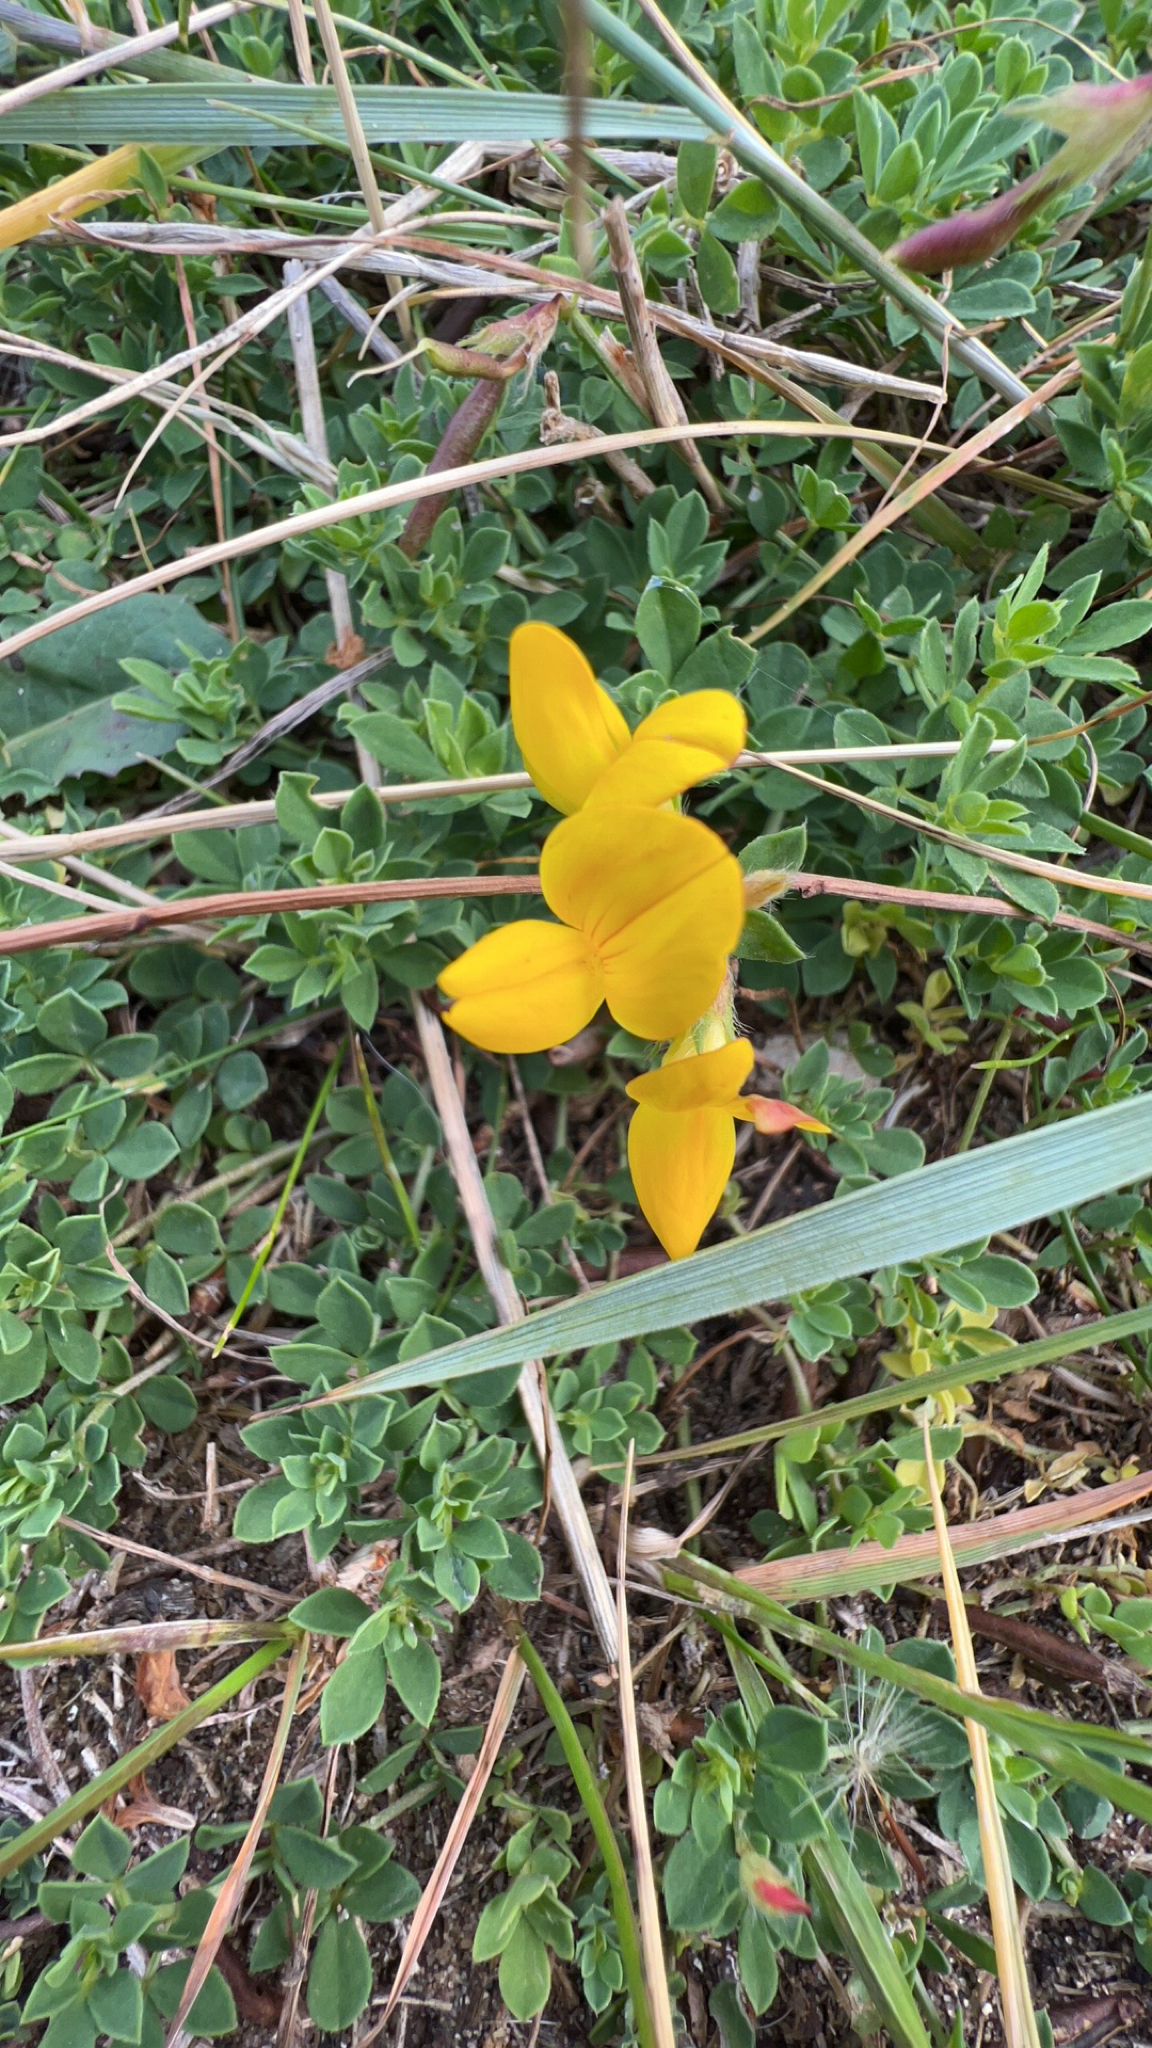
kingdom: Plantae
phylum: Tracheophyta
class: Magnoliopsida
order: Fabales
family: Fabaceae
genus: Lotus
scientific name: Lotus corniculatus
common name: Common bird's-foot-trefoil
